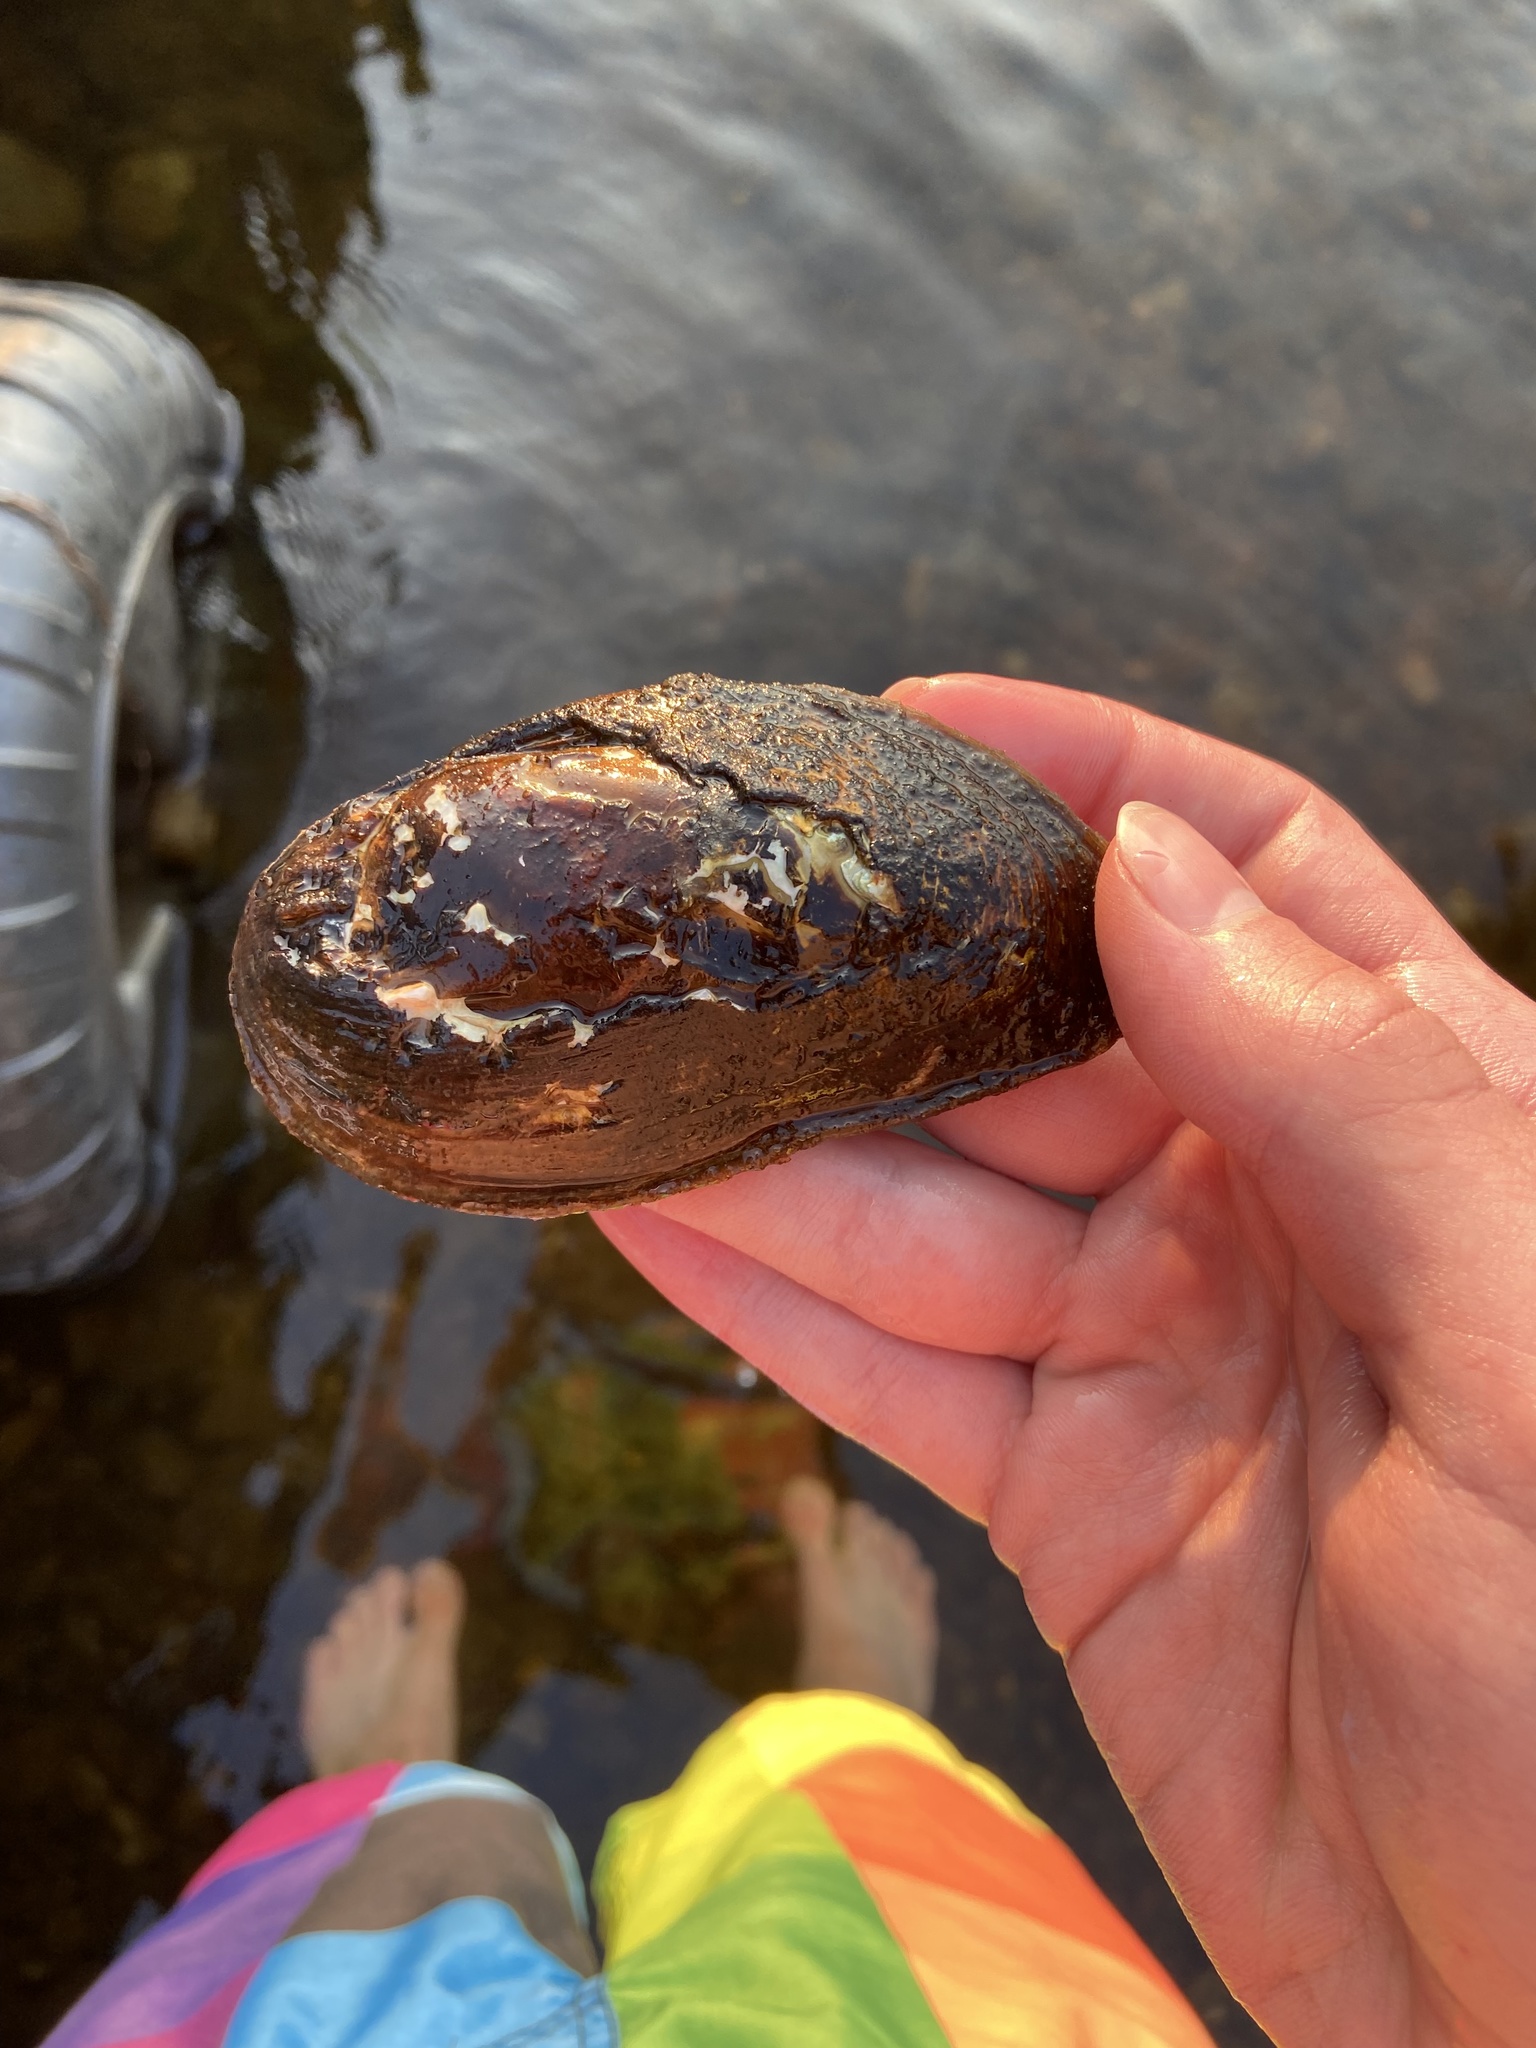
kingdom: Animalia
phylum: Mollusca
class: Bivalvia
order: Unionida
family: Unionidae
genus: Elliptio
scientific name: Elliptio complanata
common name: Eastern elliptio
